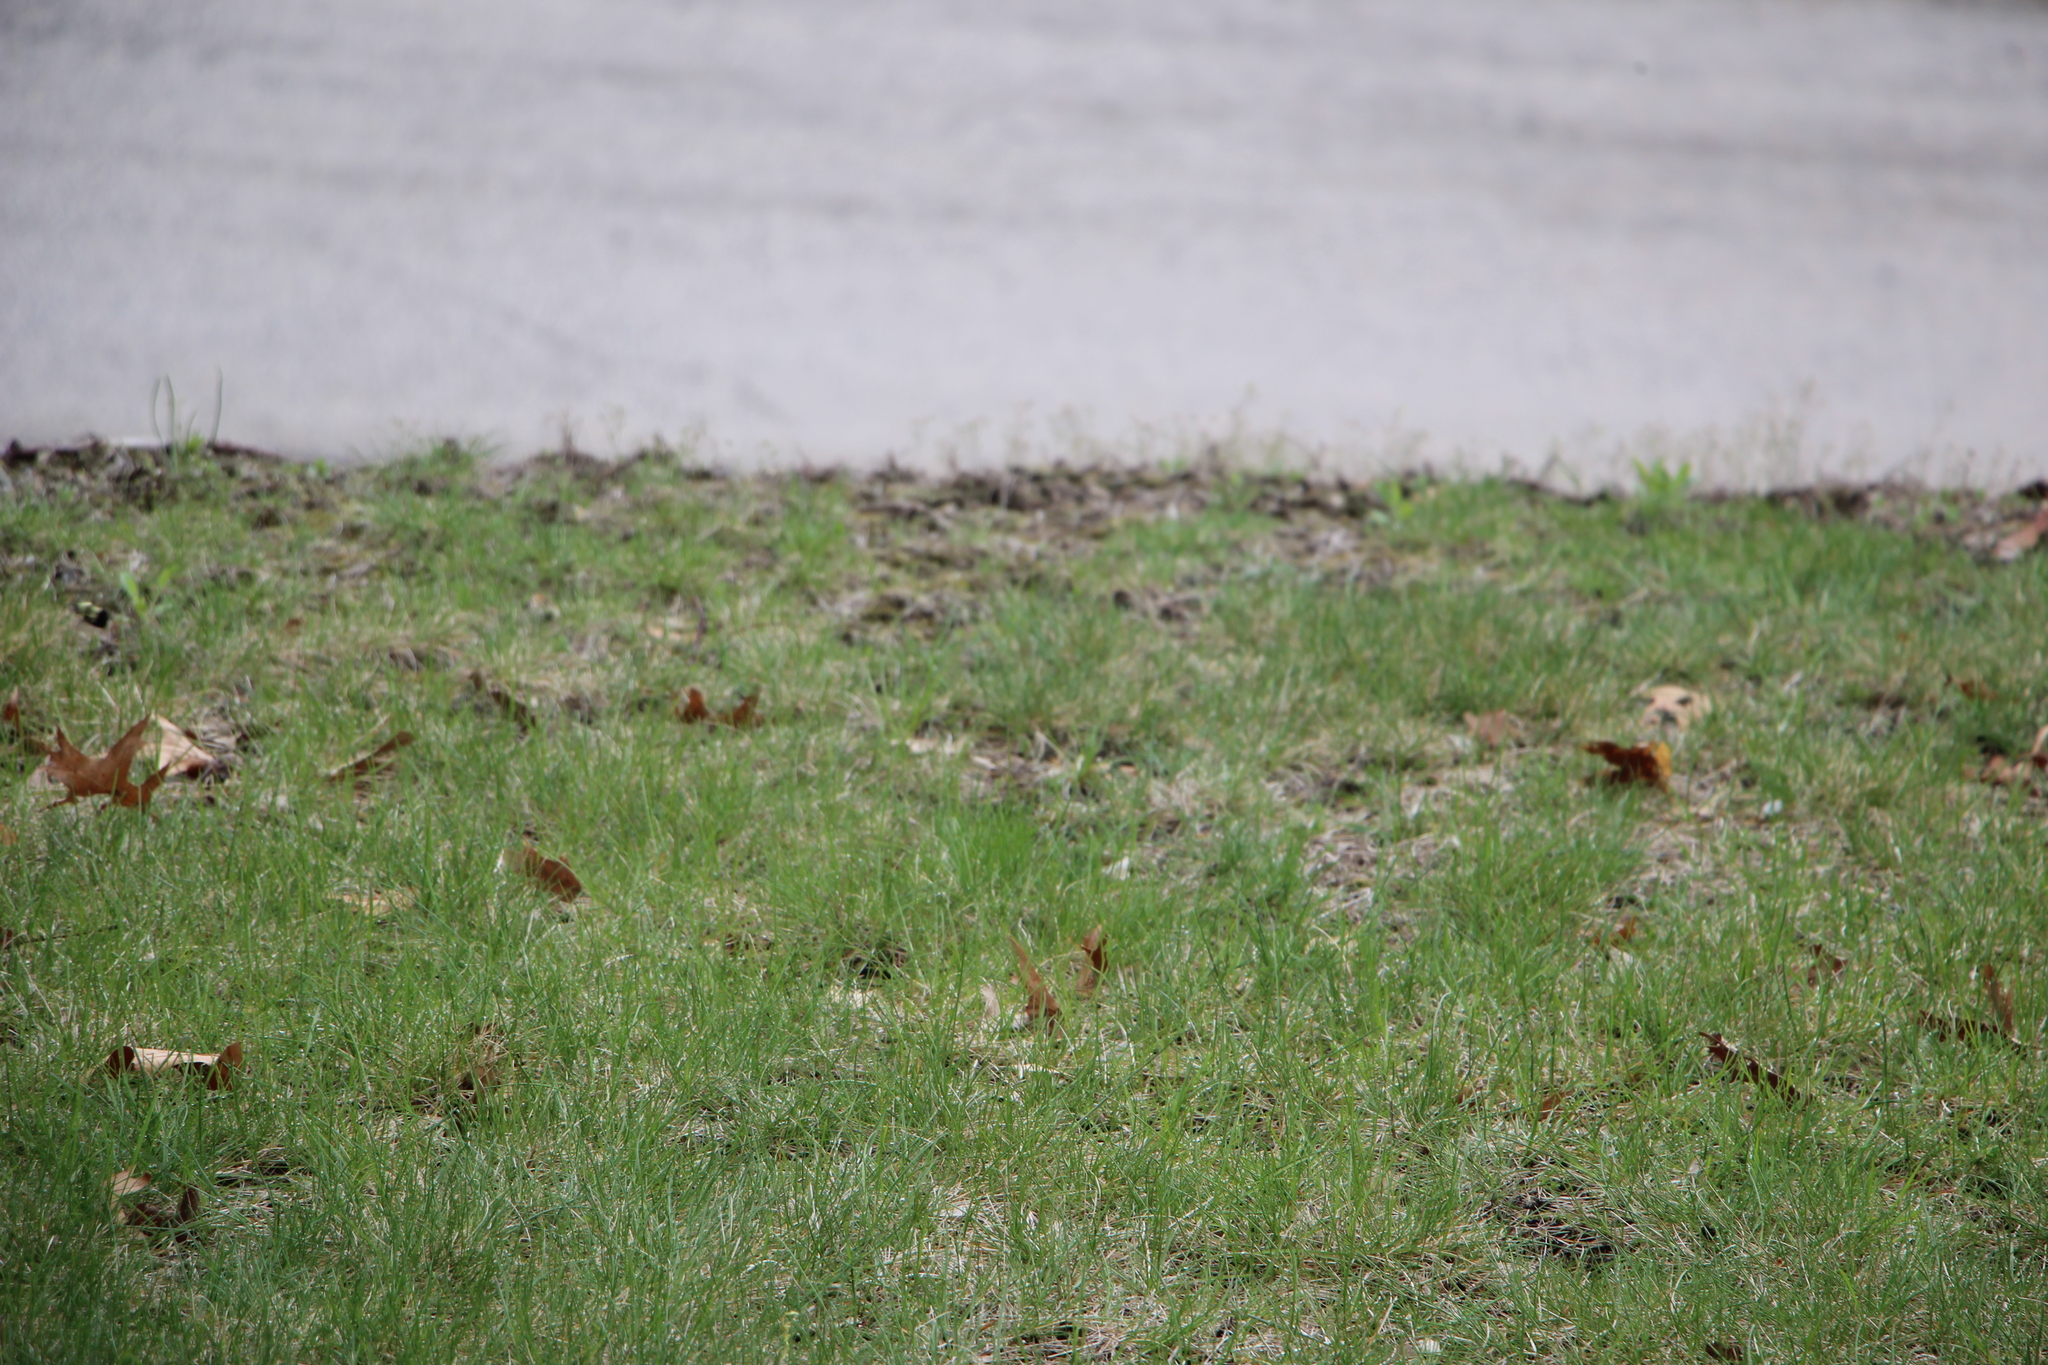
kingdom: Animalia
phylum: Arthropoda
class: Insecta
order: Hymenoptera
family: Apidae
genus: Bombus
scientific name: Bombus impatiens
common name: Common eastern bumble bee
